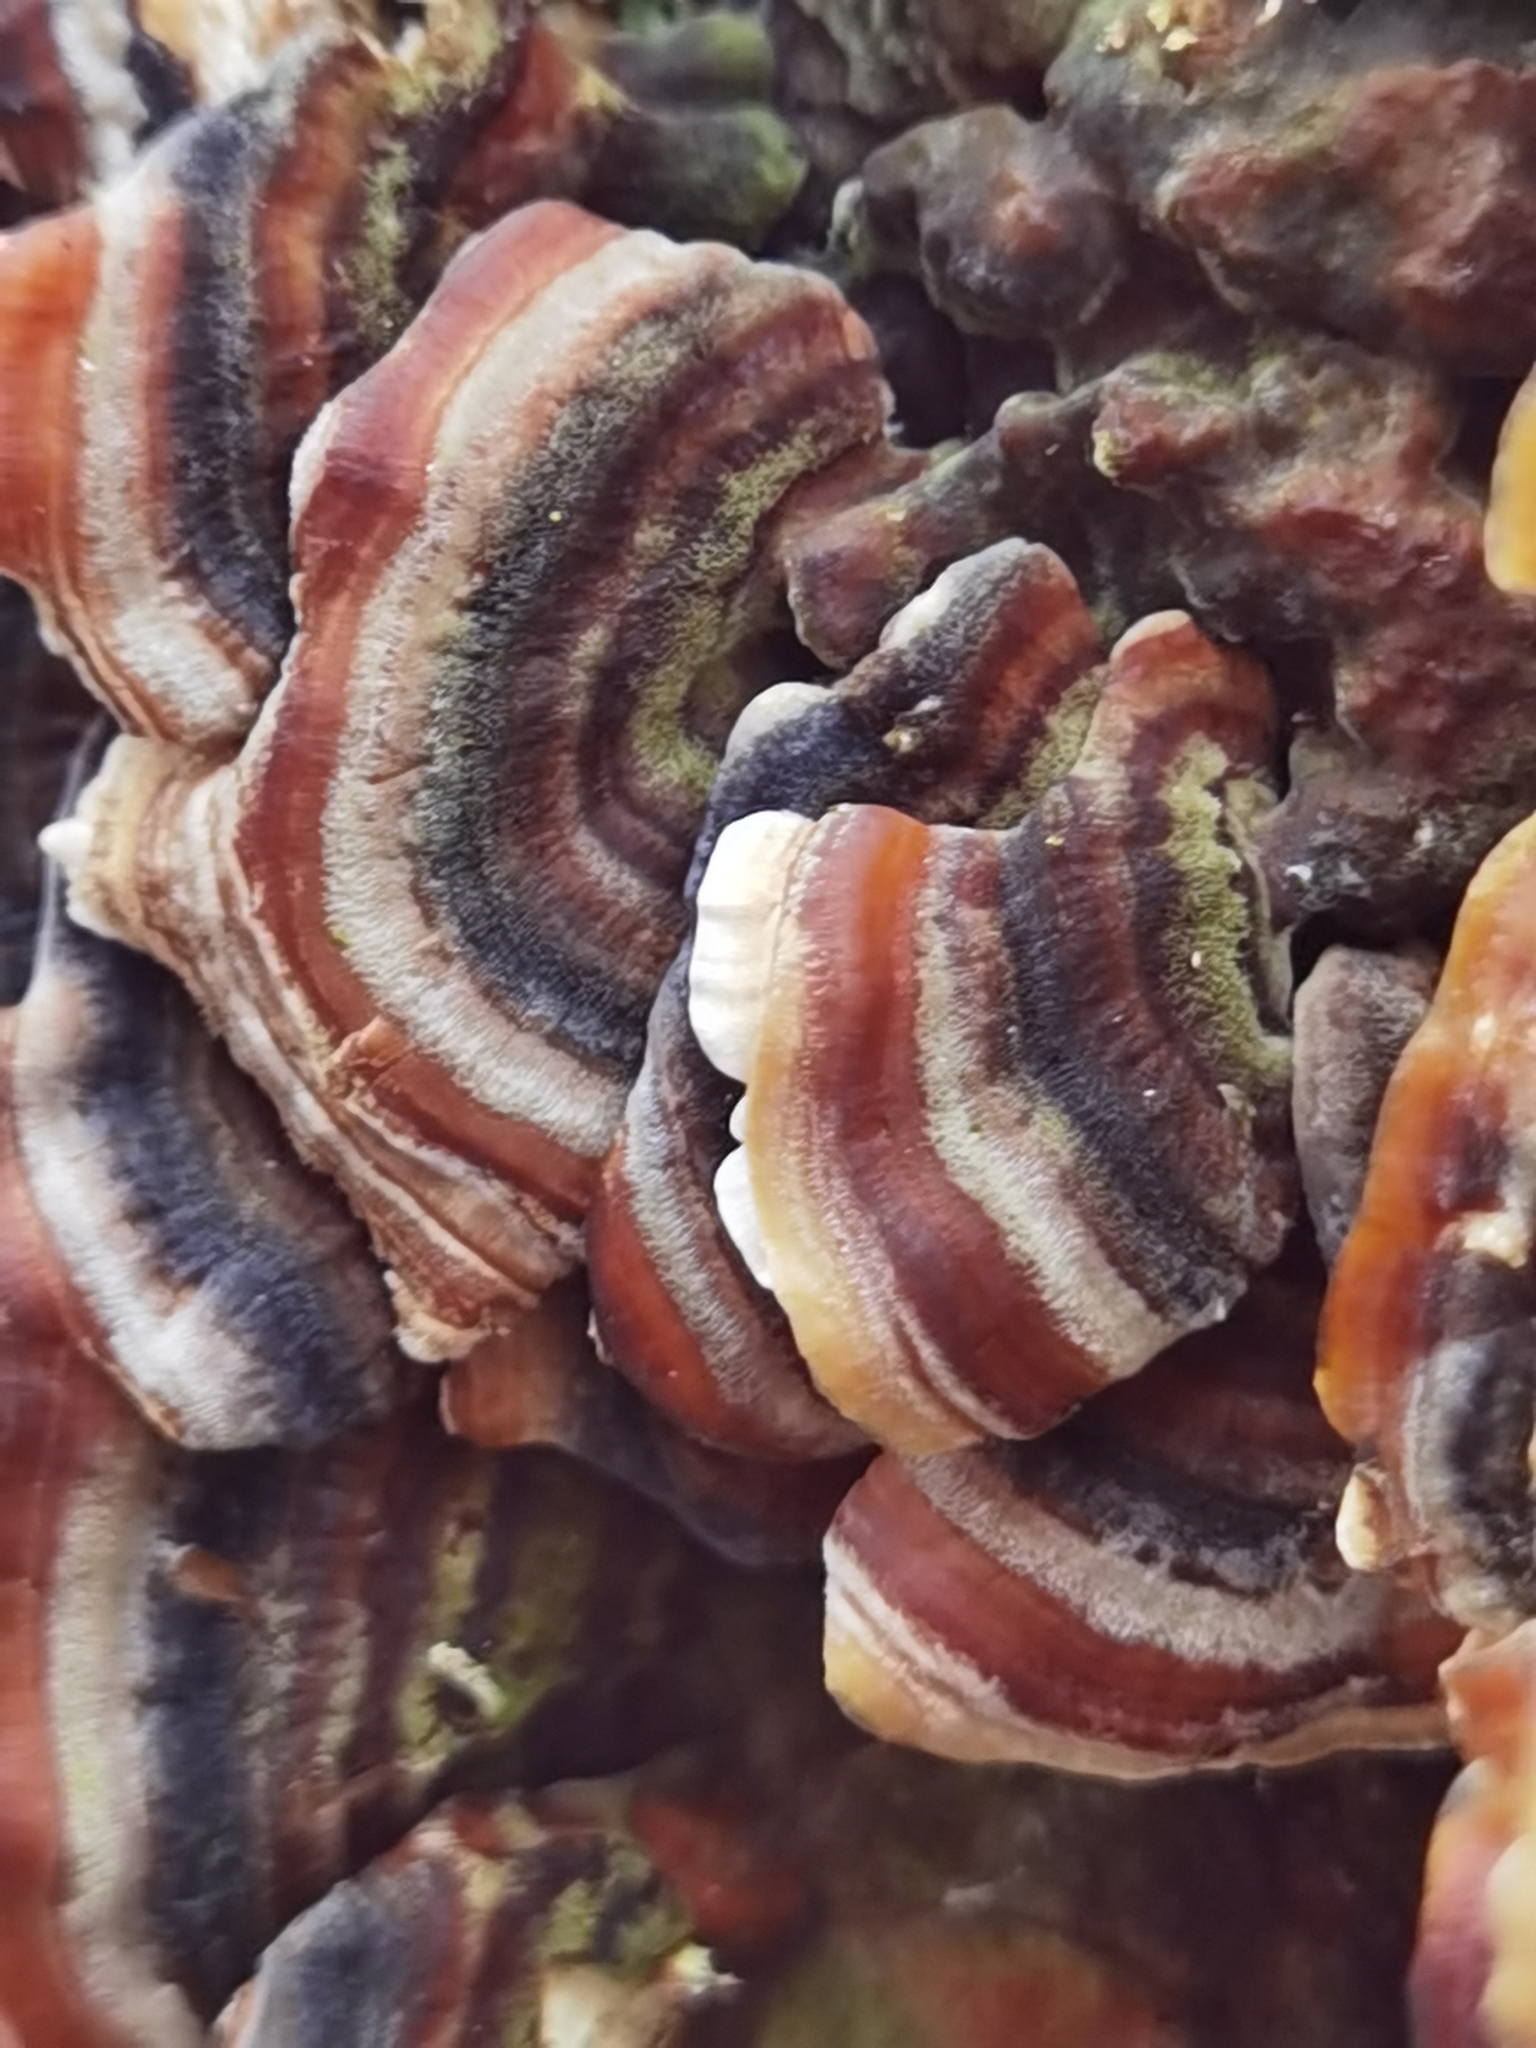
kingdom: Fungi
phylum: Basidiomycota
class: Agaricomycetes
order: Polyporales
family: Polyporaceae
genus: Trametes
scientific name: Trametes versicolor
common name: Turkeytail
